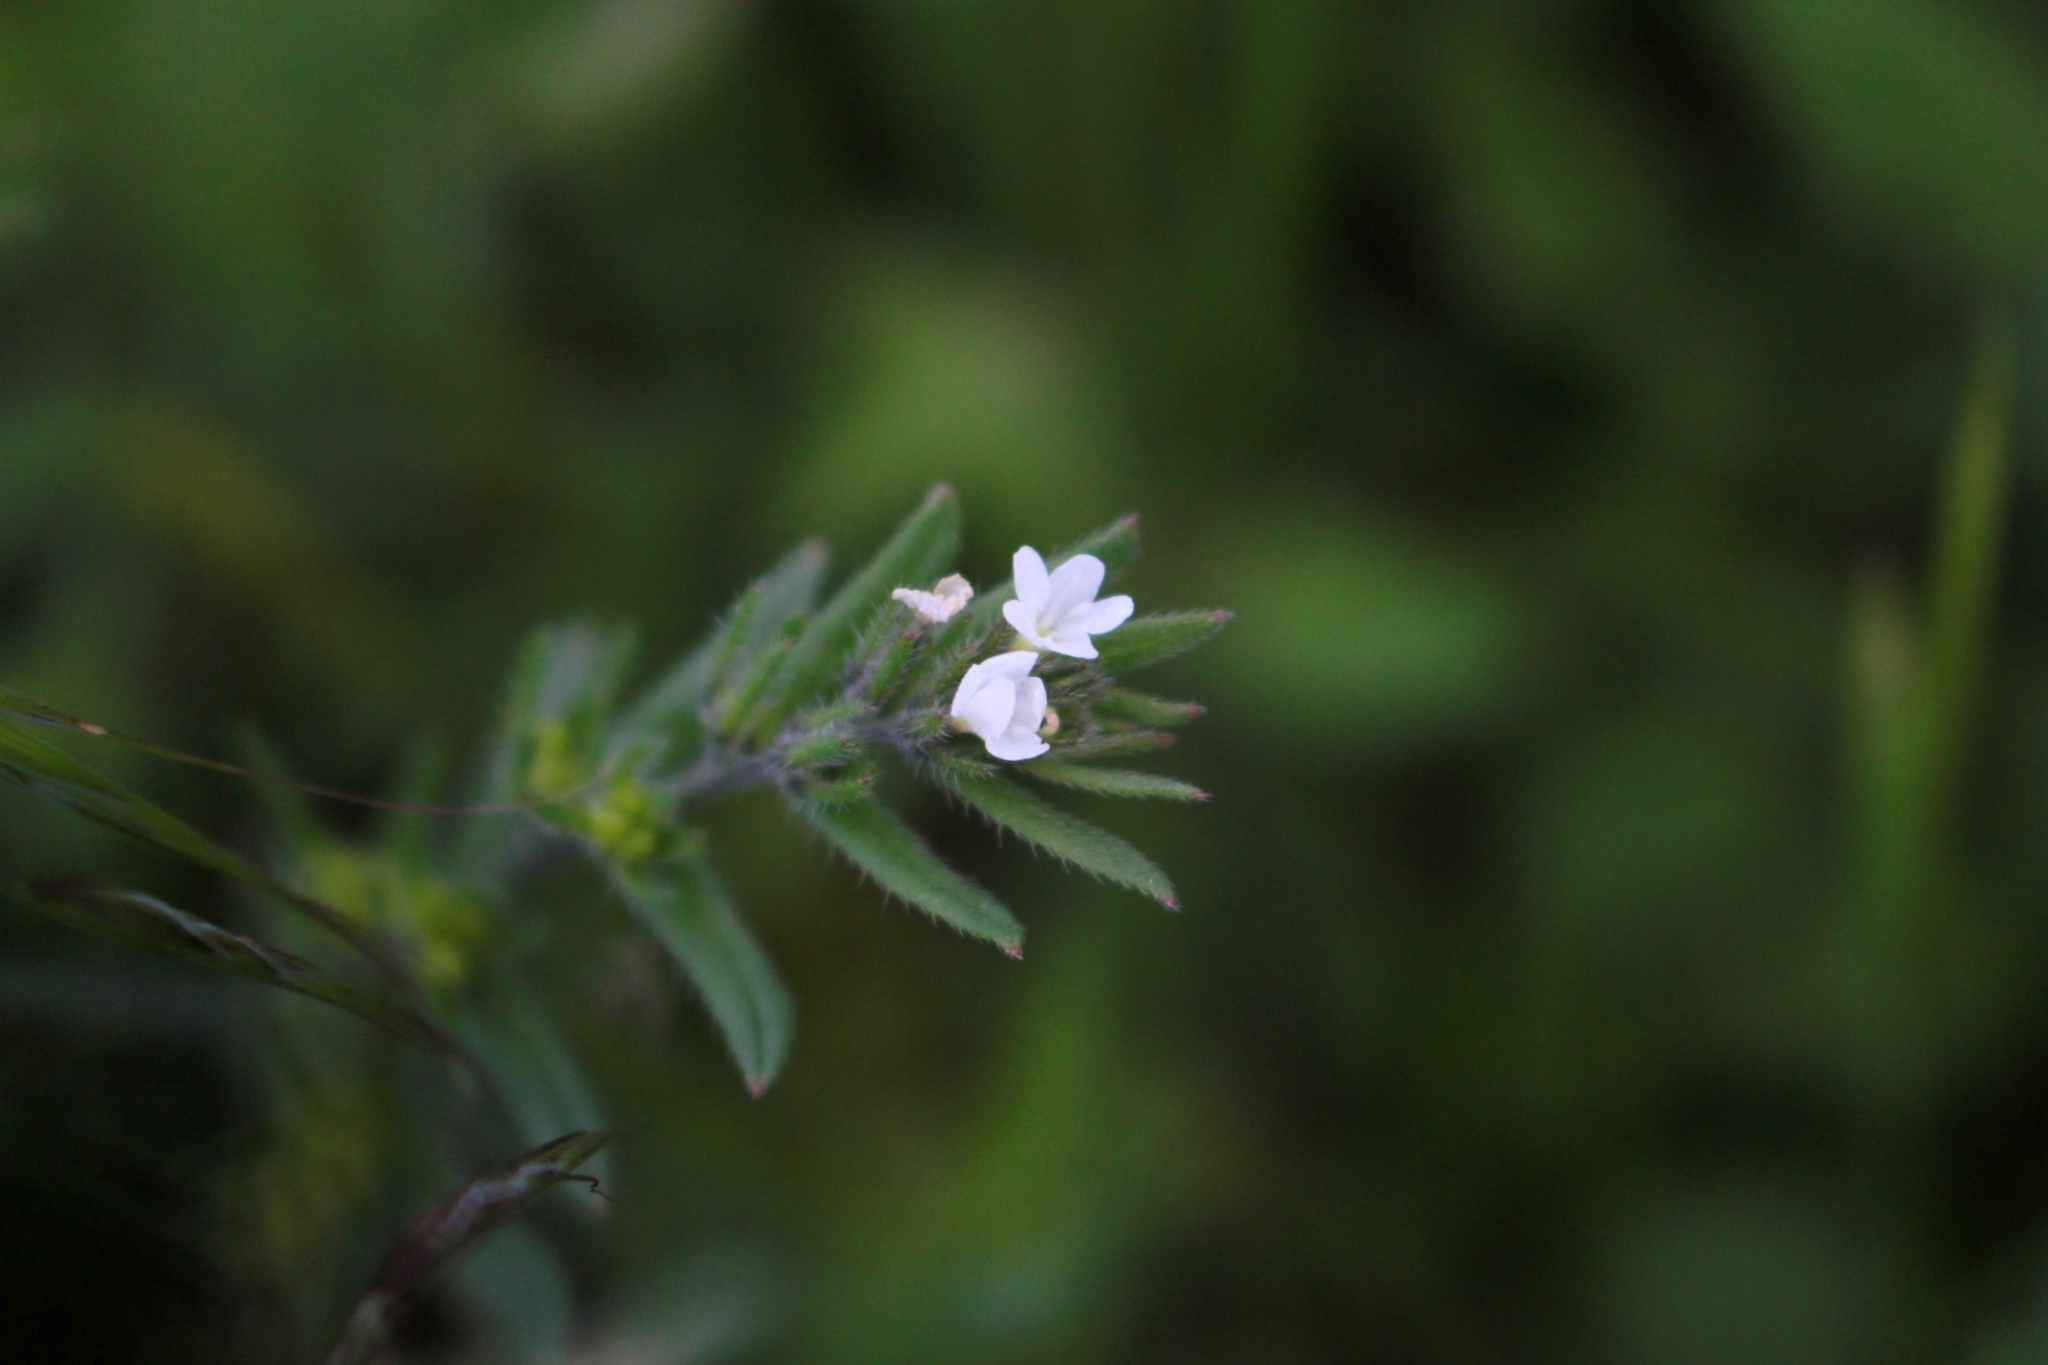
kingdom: Plantae
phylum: Tracheophyta
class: Magnoliopsida
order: Boraginales
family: Boraginaceae
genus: Buglossoides
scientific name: Buglossoides arvensis
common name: Corn gromwell
